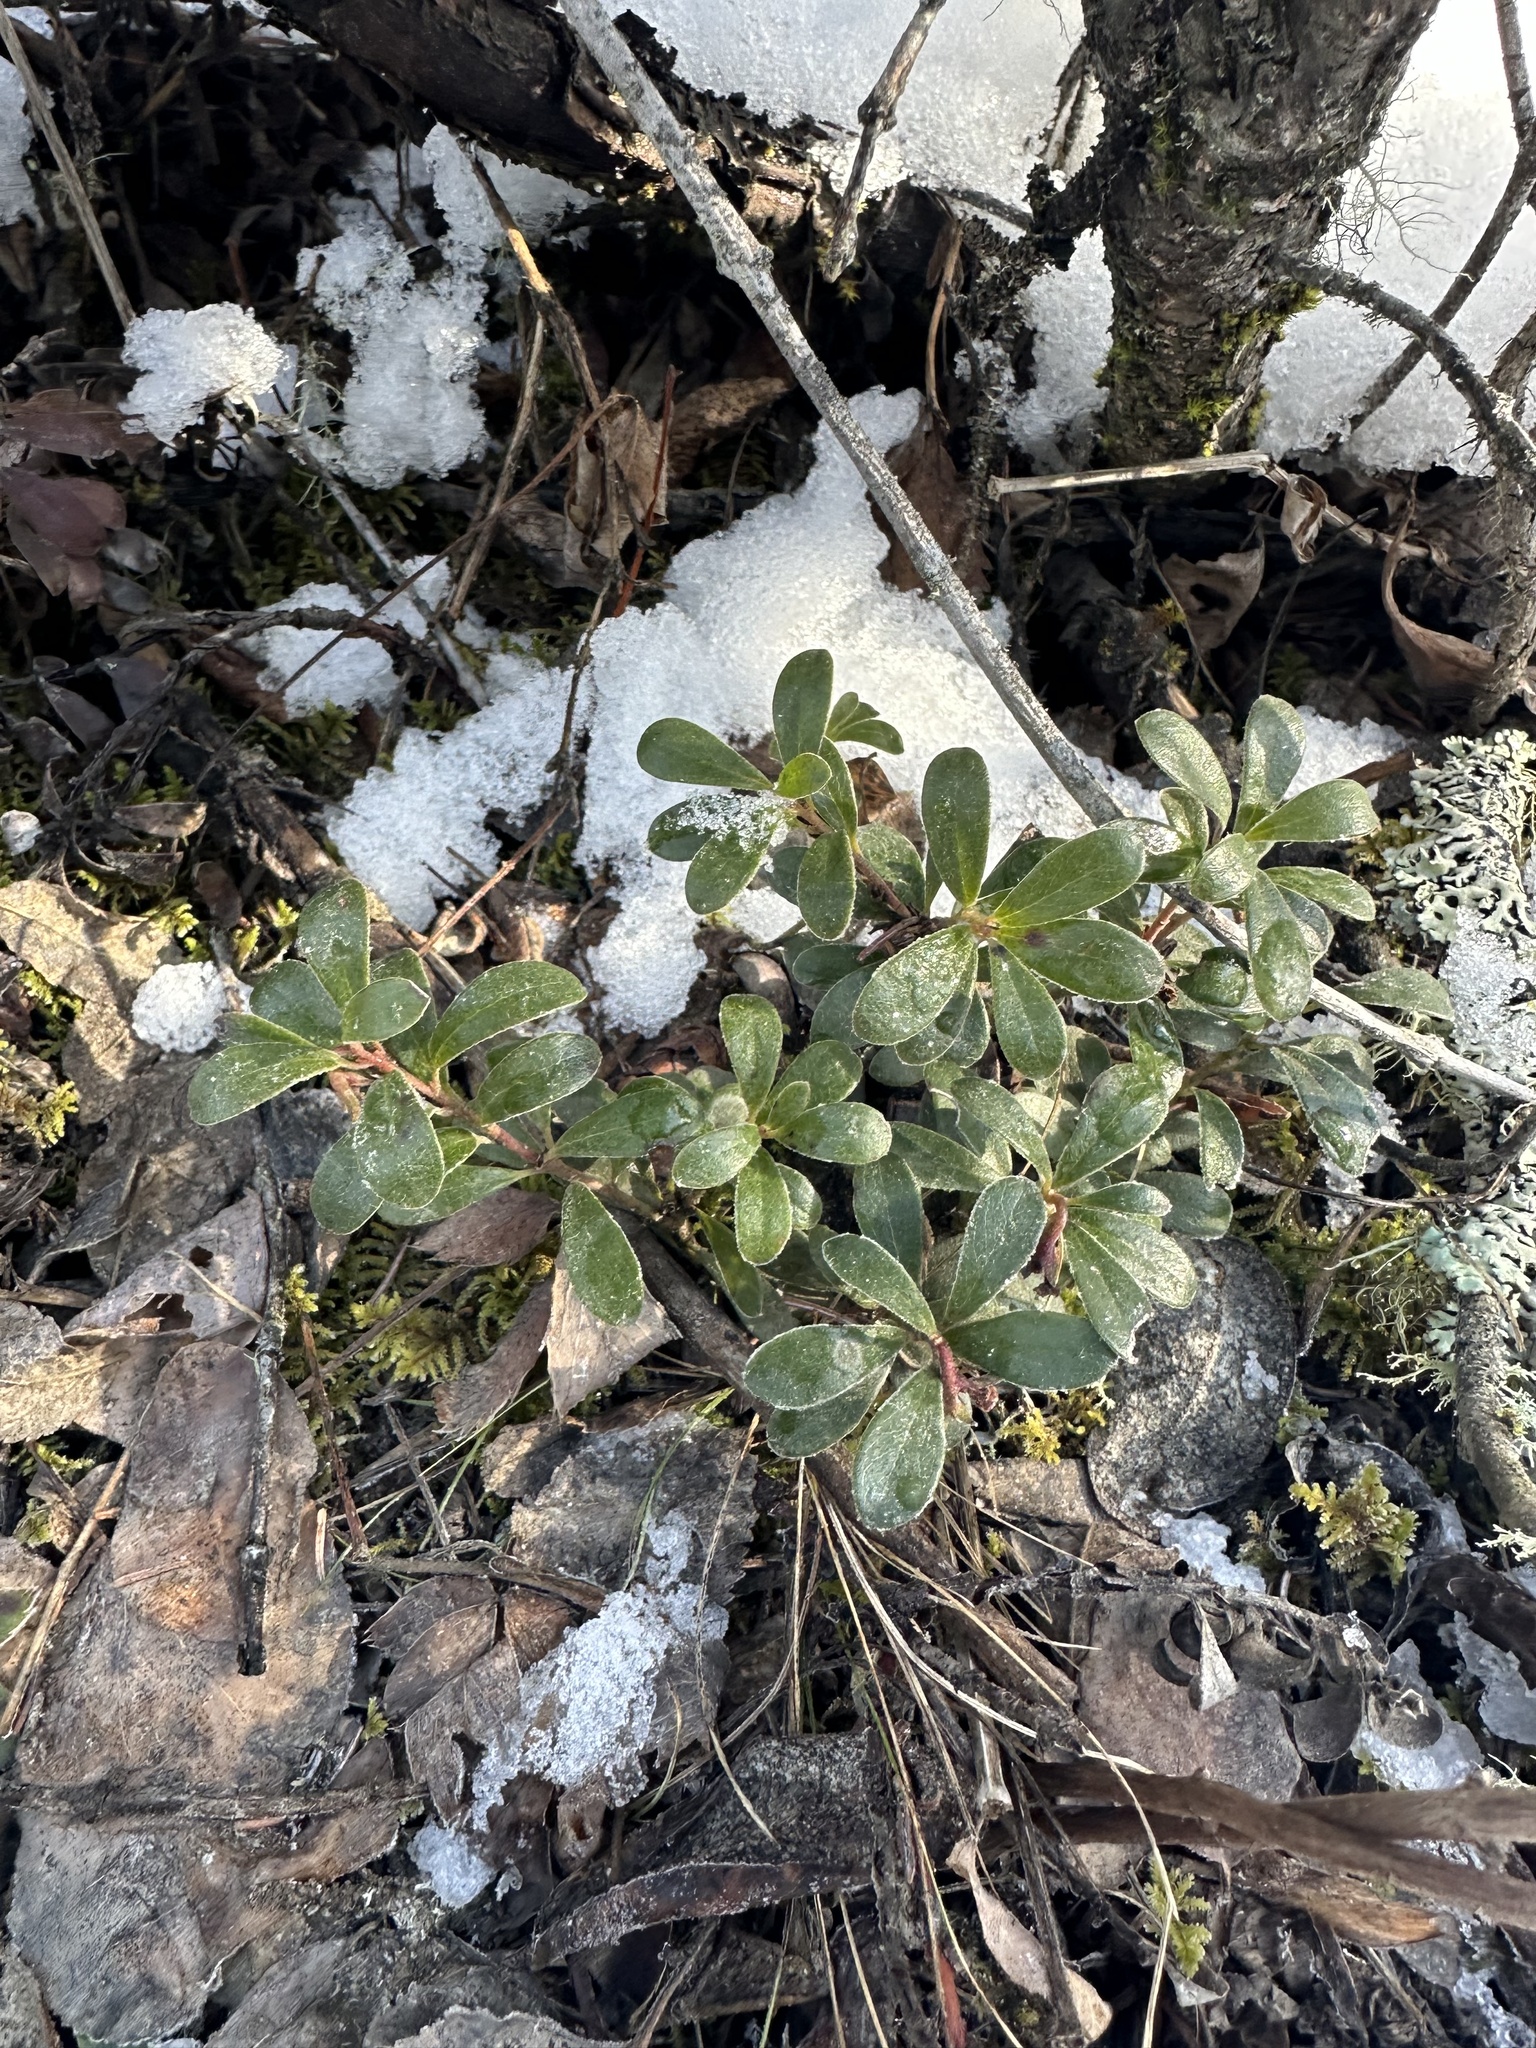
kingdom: Plantae
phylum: Tracheophyta
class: Magnoliopsida
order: Ericales
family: Ericaceae
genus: Arctostaphylos
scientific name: Arctostaphylos uva-ursi
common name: Bearberry
